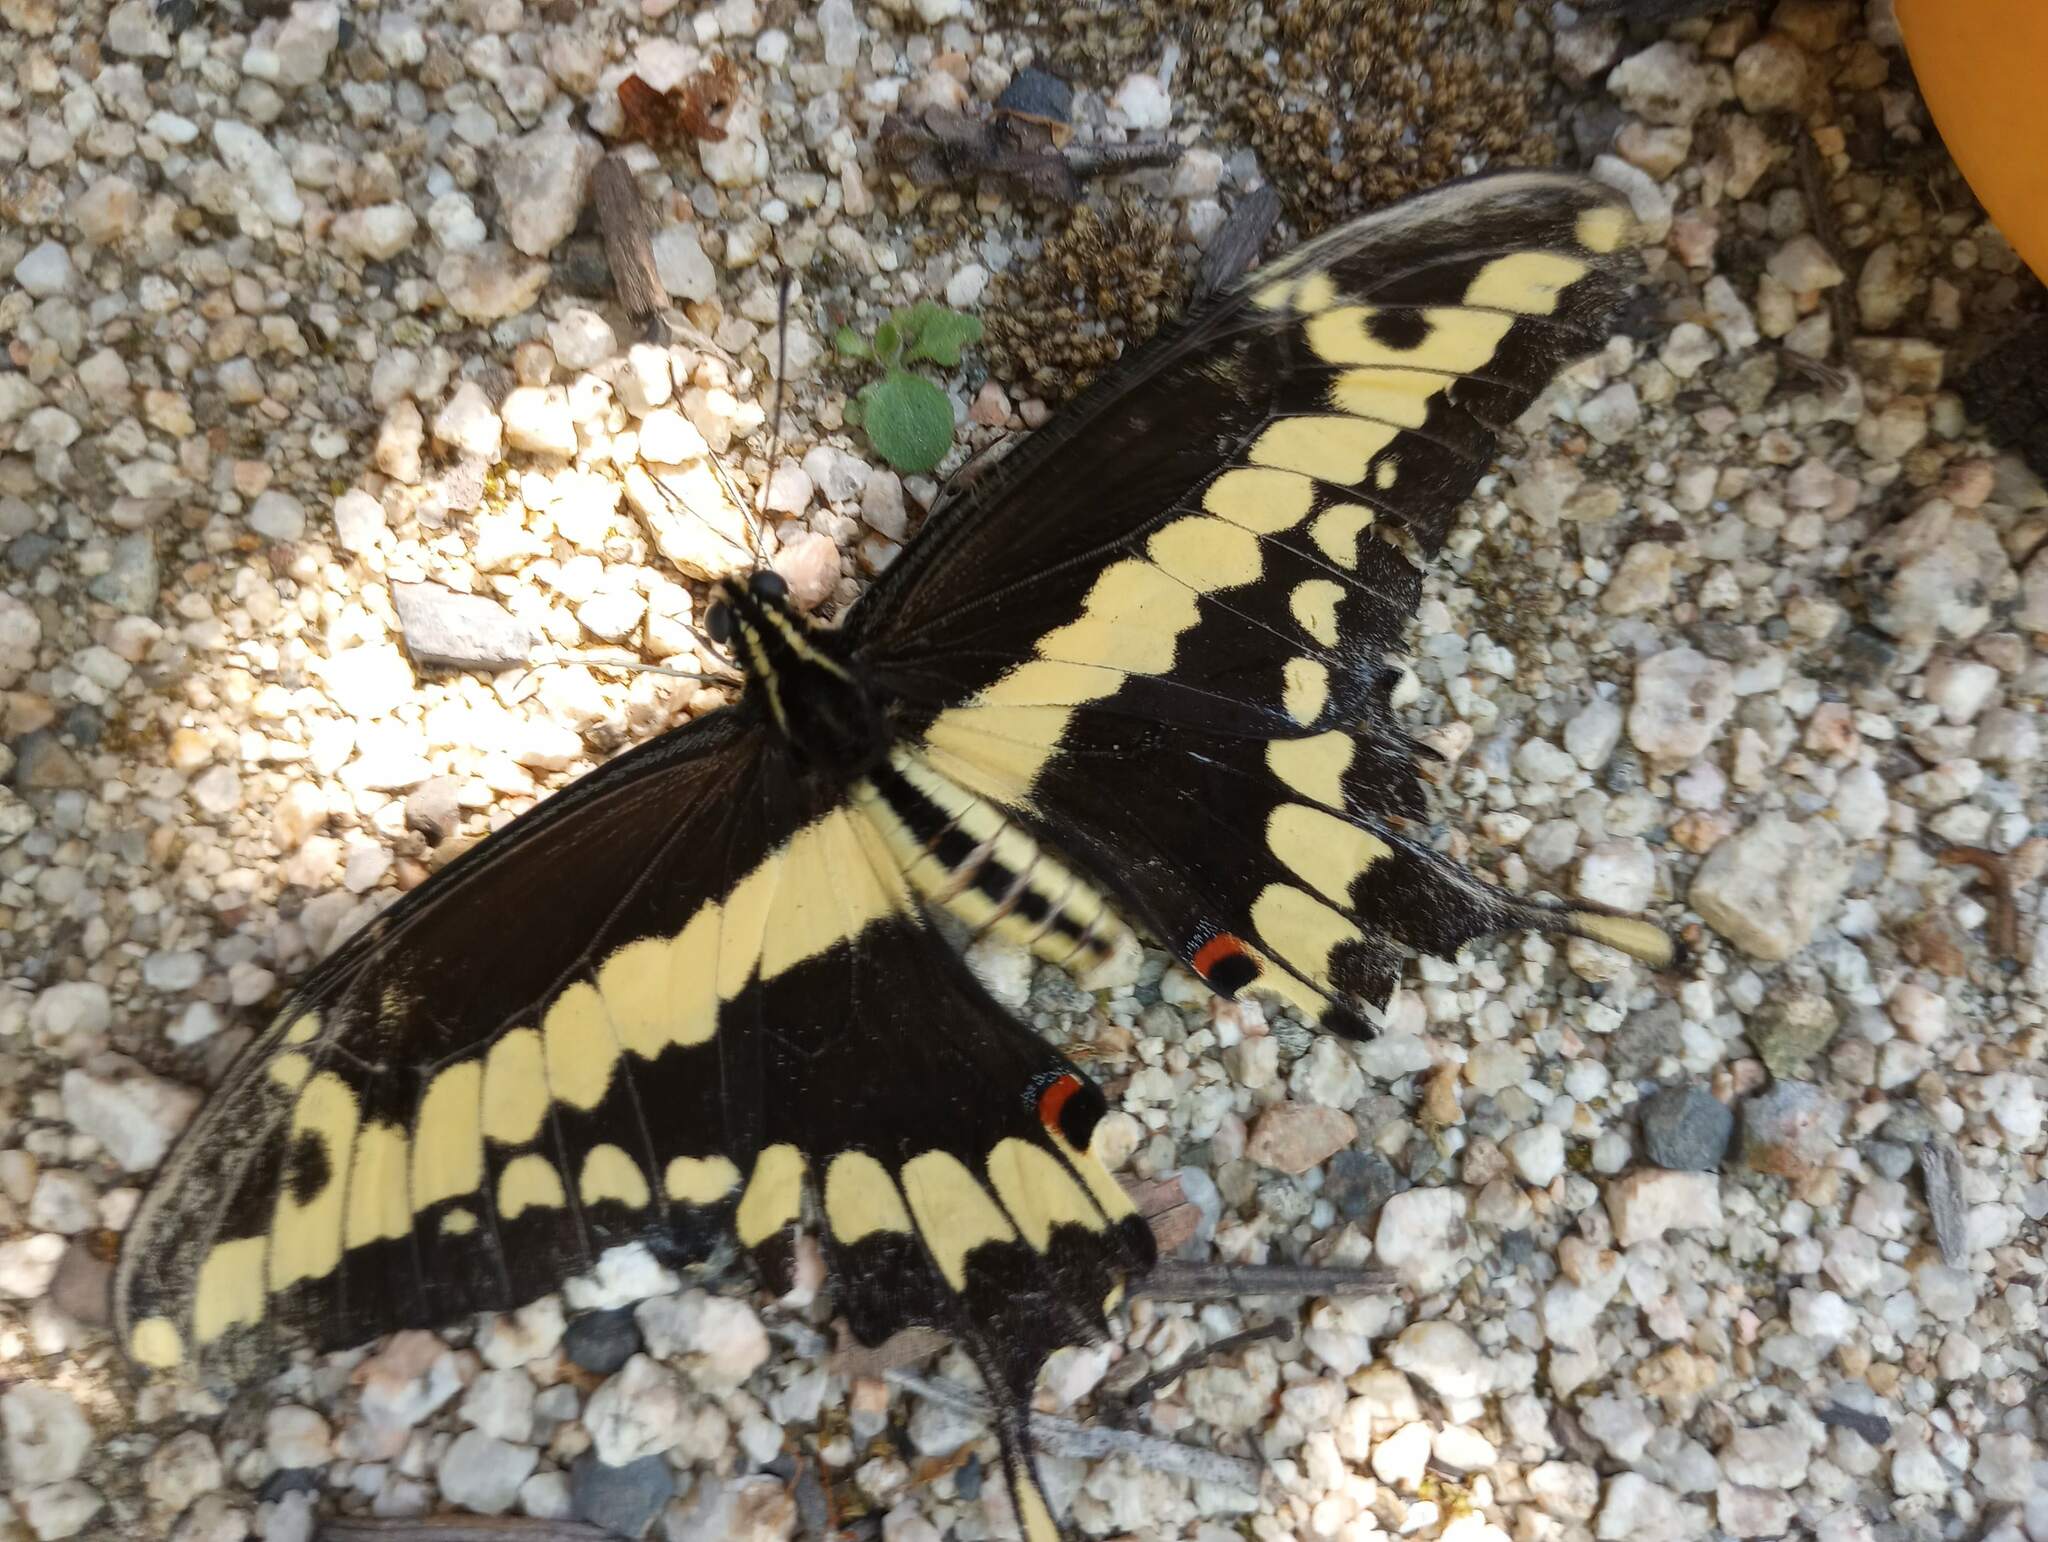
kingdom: Animalia
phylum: Arthropoda
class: Insecta
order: Lepidoptera
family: Papilionidae
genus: Papilio
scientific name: Papilio rumiko
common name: Western giant swallowtail
